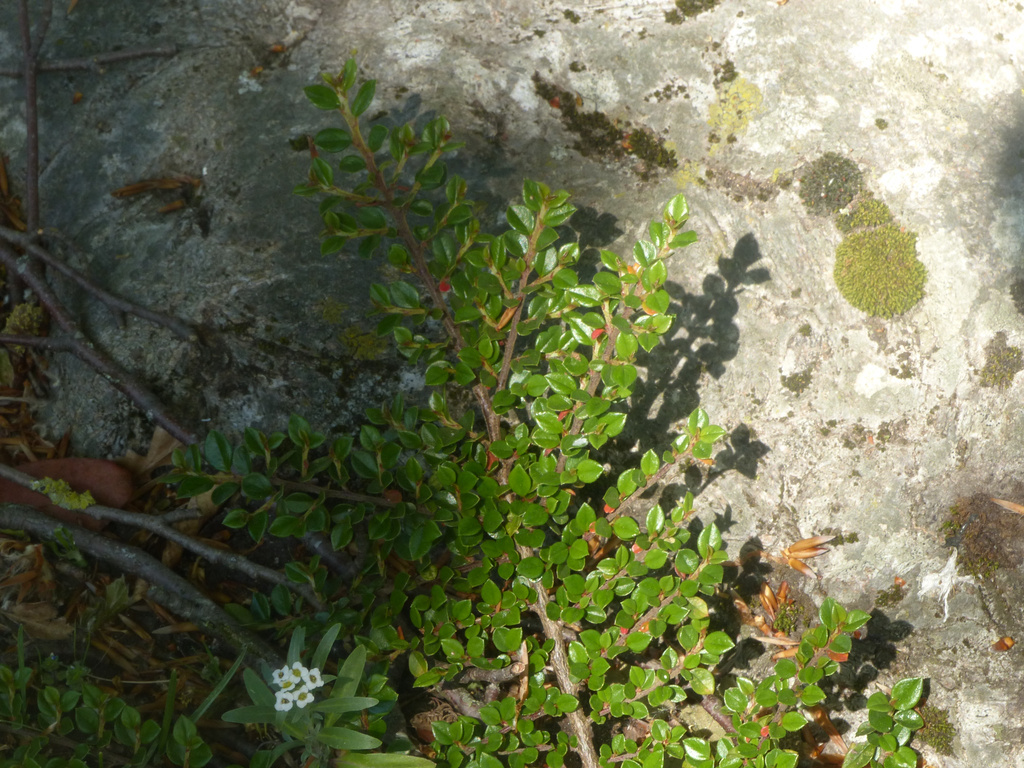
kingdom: Plantae
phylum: Tracheophyta
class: Magnoliopsida
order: Rosales
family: Rosaceae
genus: Cotoneaster
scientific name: Cotoneaster horizontalis
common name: Wall cotoneaster
